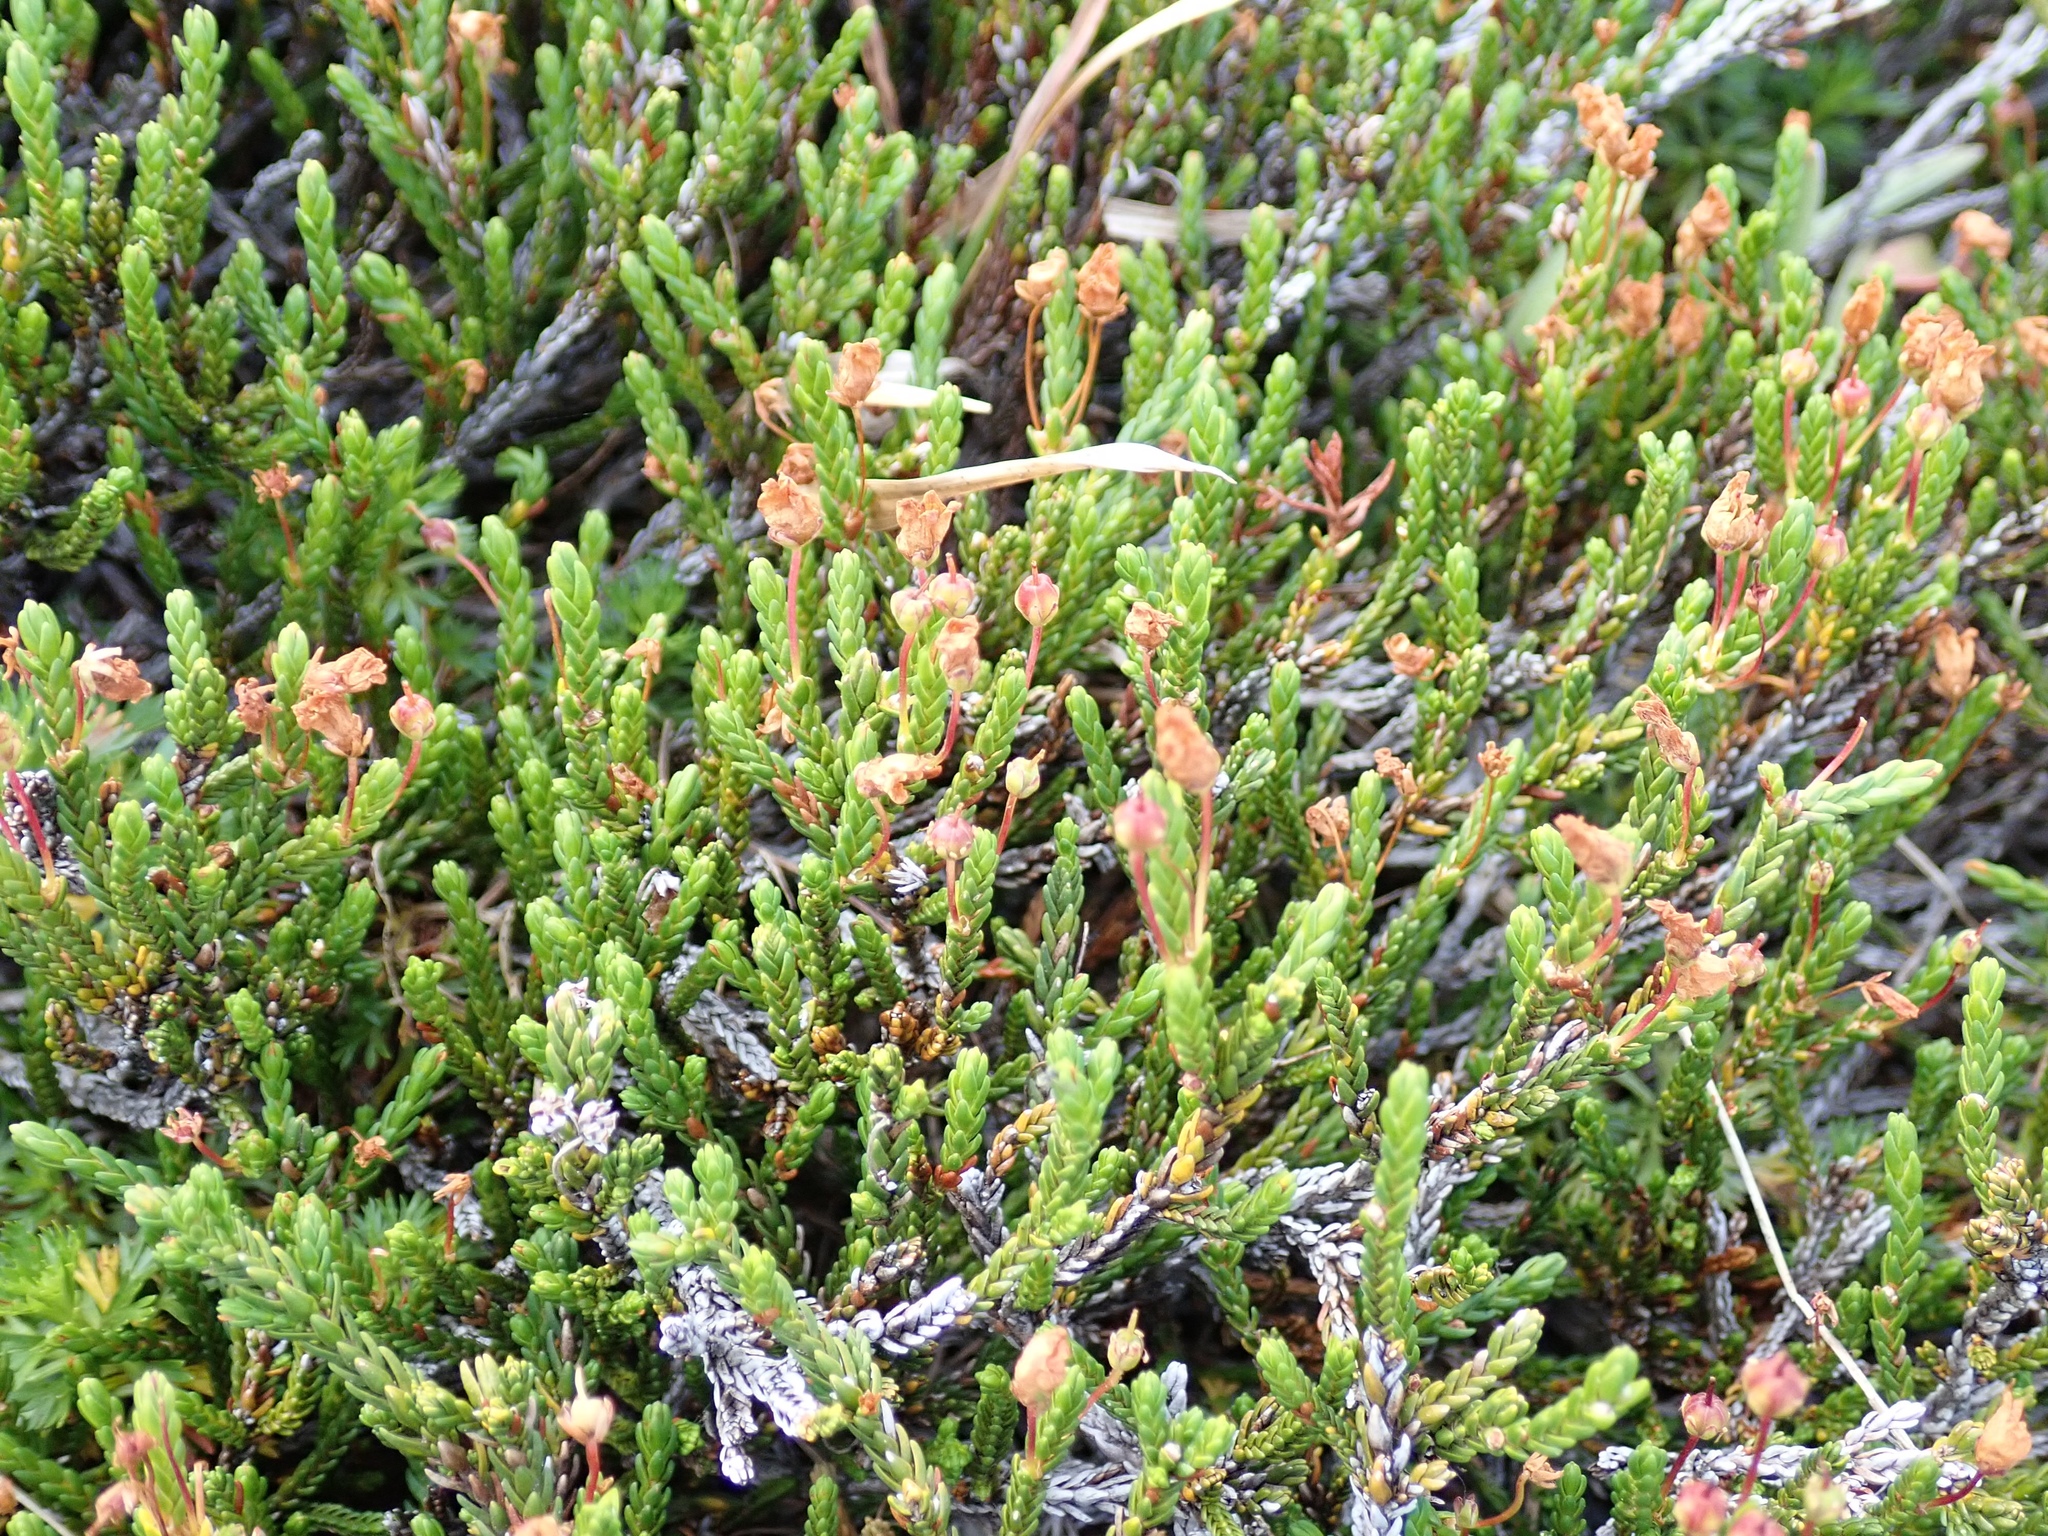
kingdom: Plantae
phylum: Tracheophyta
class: Magnoliopsida
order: Ericales
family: Ericaceae
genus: Cassiope
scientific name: Cassiope mertensiana
